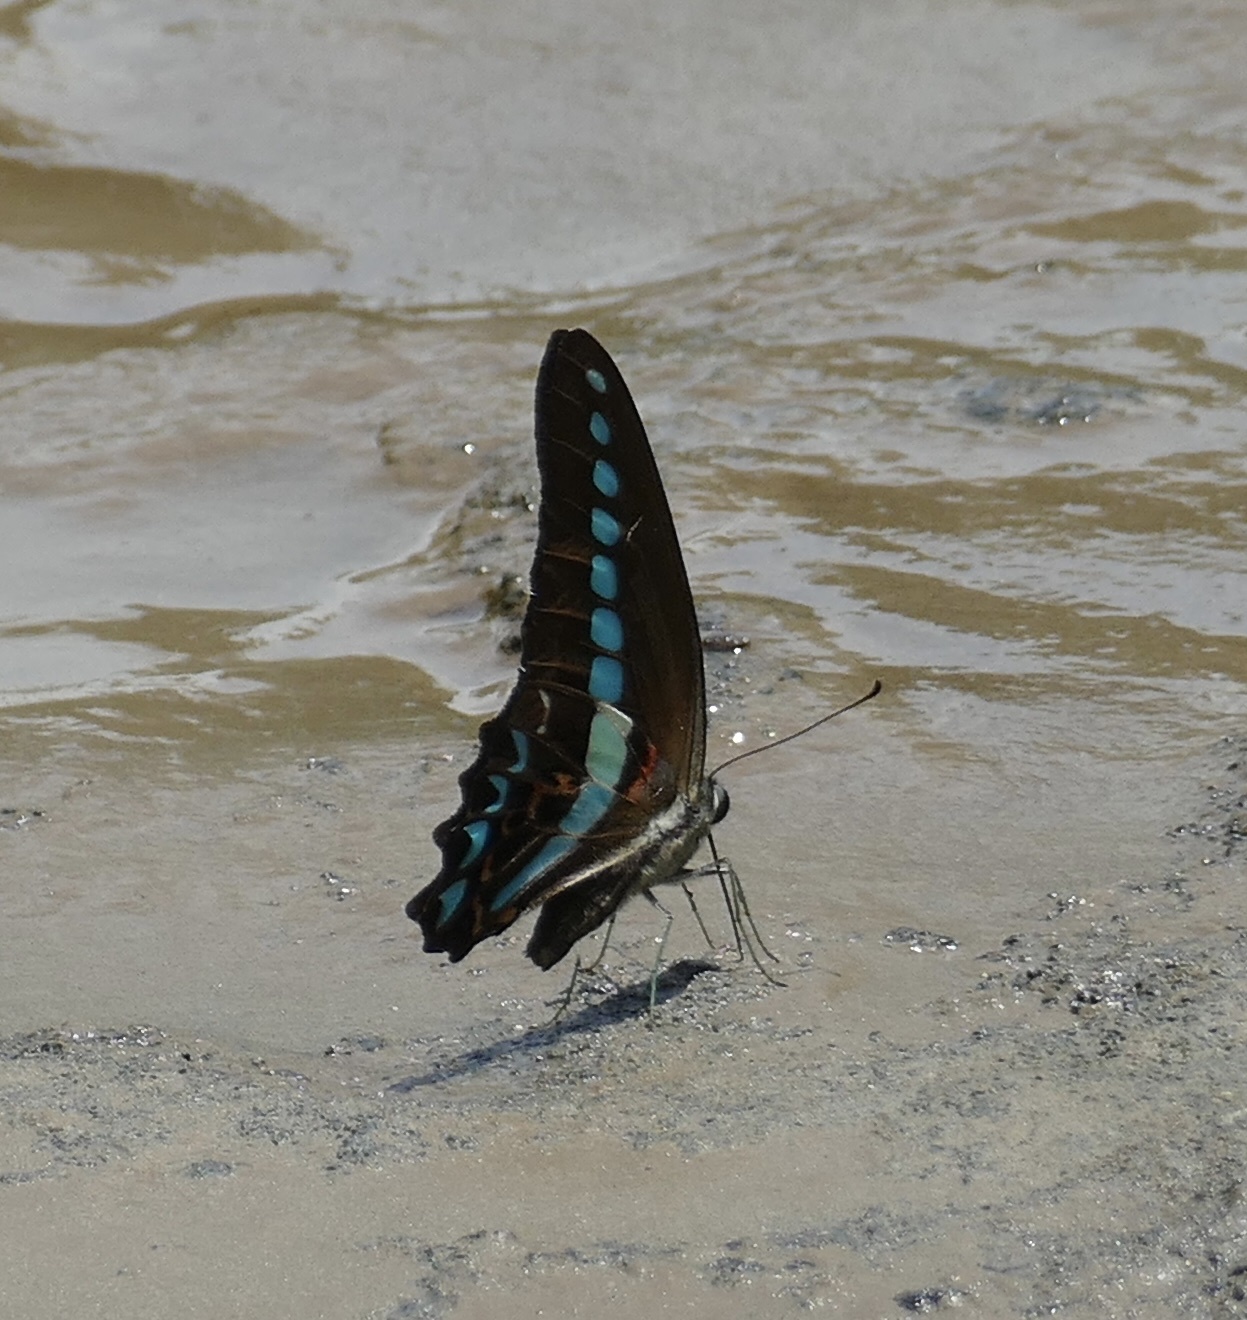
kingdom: Animalia
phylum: Arthropoda
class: Insecta
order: Lepidoptera
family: Papilionidae
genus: Graphium
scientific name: Graphium milon
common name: Milon's swallowtail
